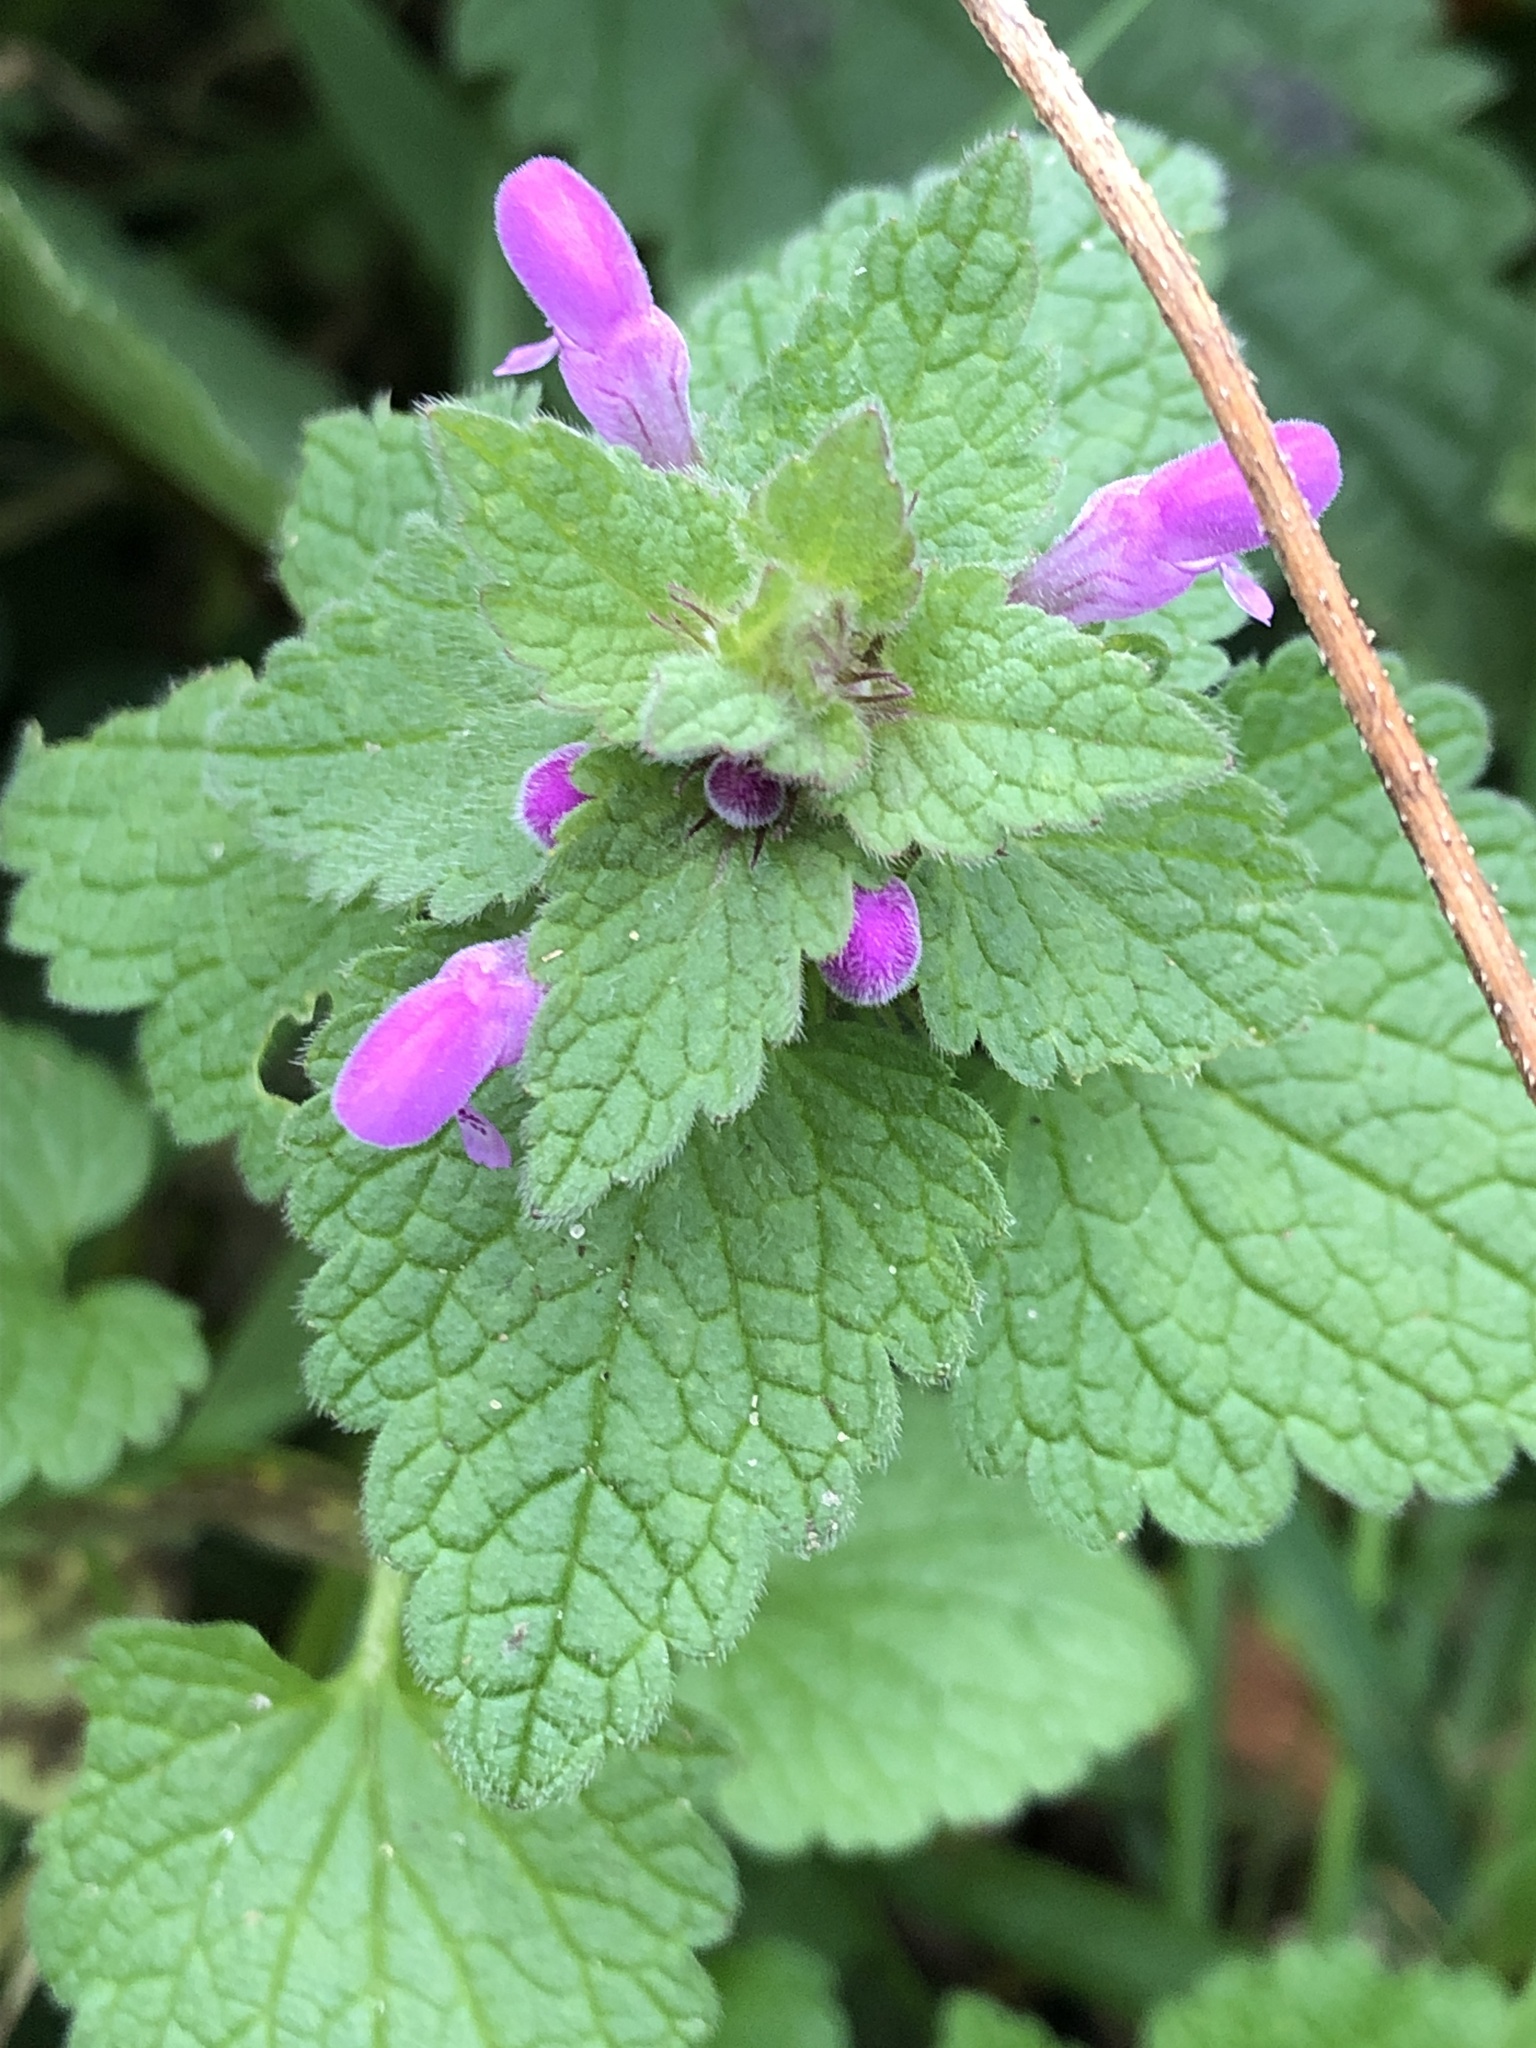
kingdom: Plantae
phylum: Tracheophyta
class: Magnoliopsida
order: Lamiales
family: Lamiaceae
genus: Lamium
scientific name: Lamium purpureum
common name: Red dead-nettle
